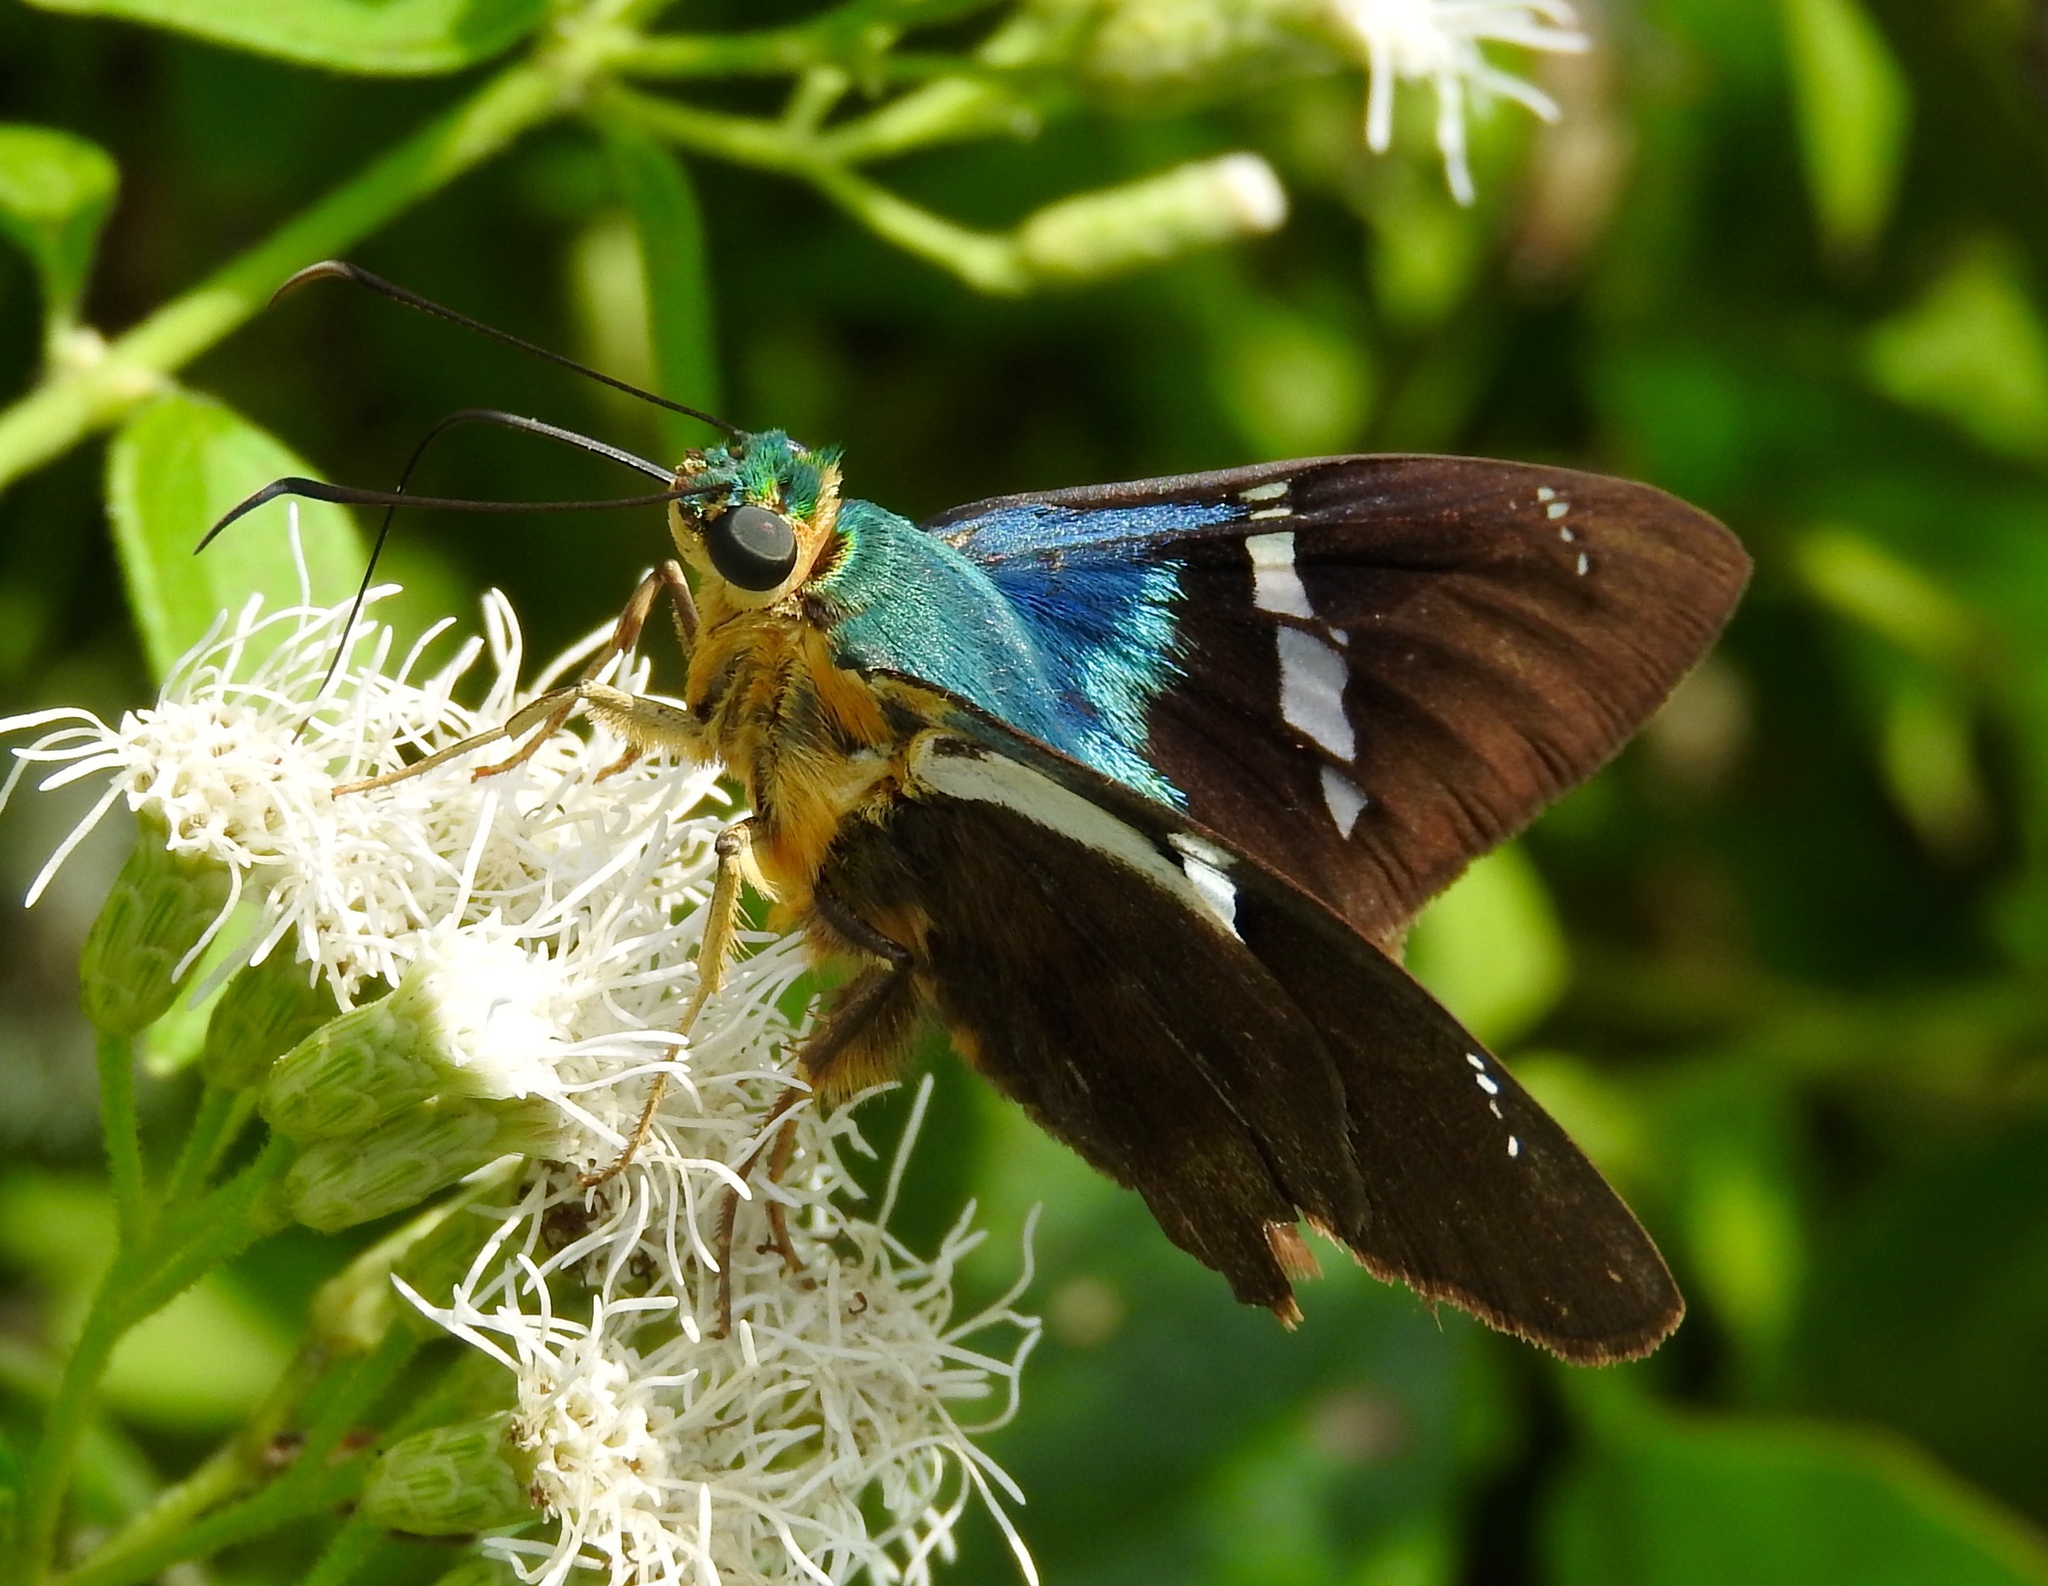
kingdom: Animalia
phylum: Arthropoda
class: Insecta
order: Lepidoptera
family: Hesperiidae
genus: Astraptes
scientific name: Astraptes fulgerator
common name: Two-barred flasher
